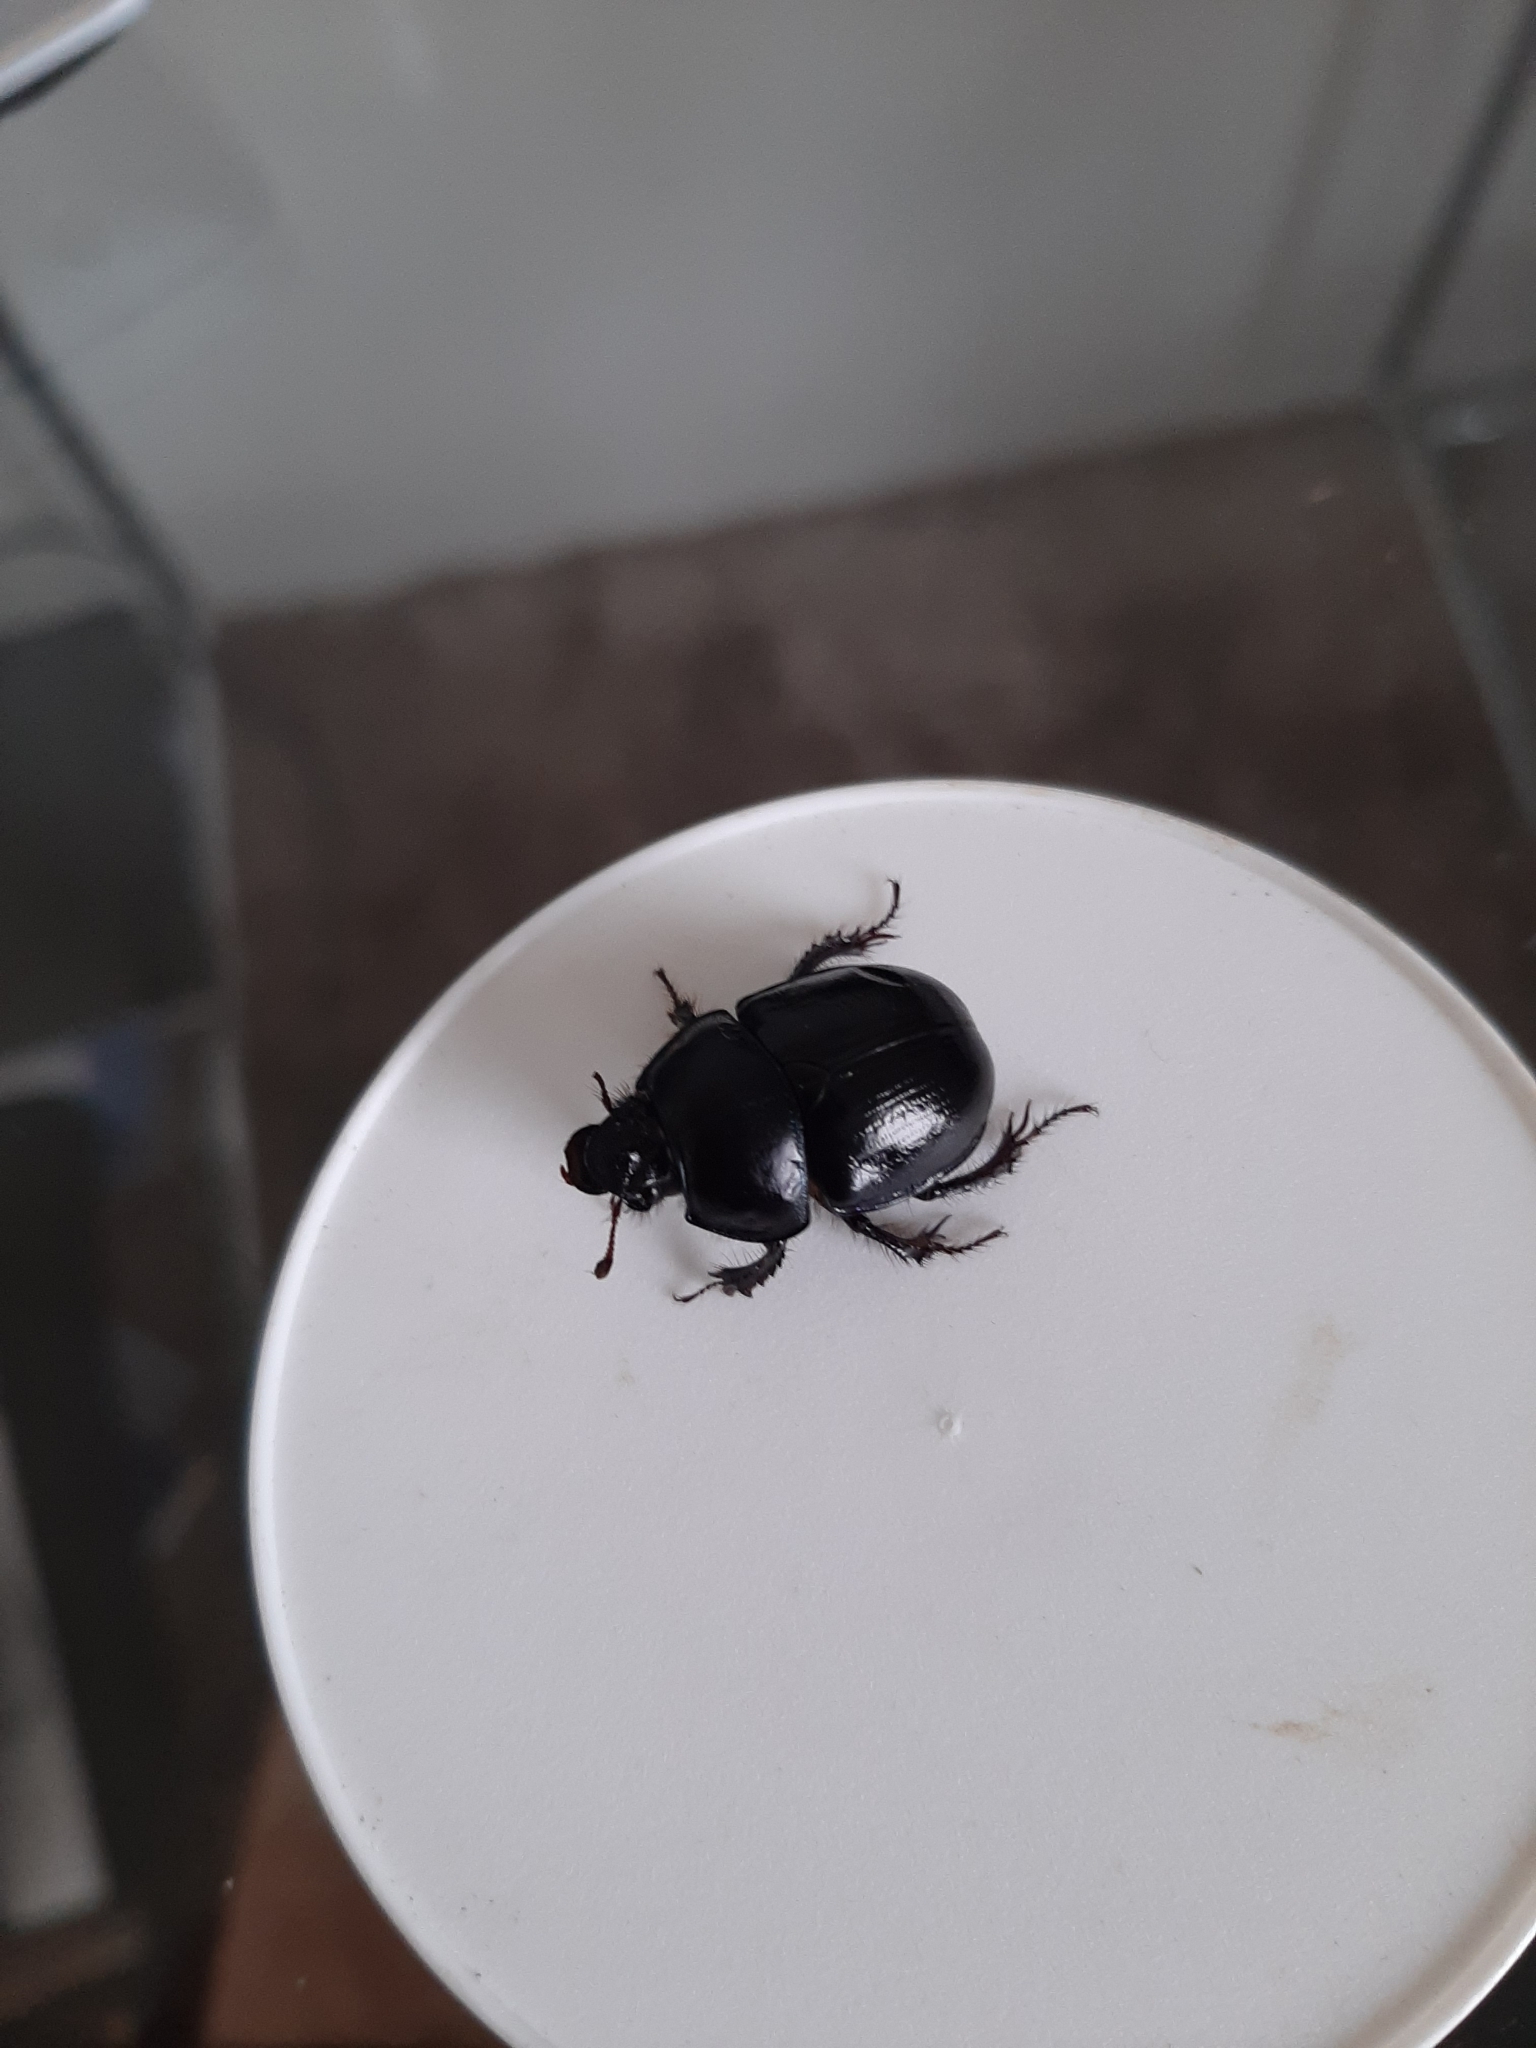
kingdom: Animalia
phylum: Arthropoda
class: Insecta
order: Coleoptera
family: Geotrupidae
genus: Anoplotrupes
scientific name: Anoplotrupes stercorosus
